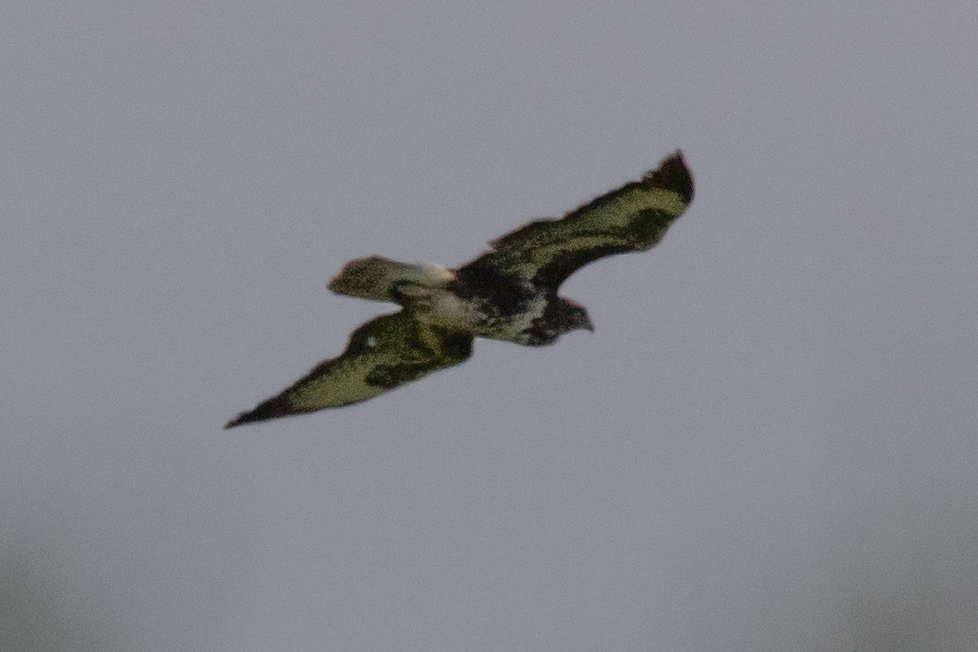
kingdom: Animalia
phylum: Chordata
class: Aves
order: Accipitriformes
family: Accipitridae
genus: Buteo
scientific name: Buteo buteo
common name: Common buzzard
